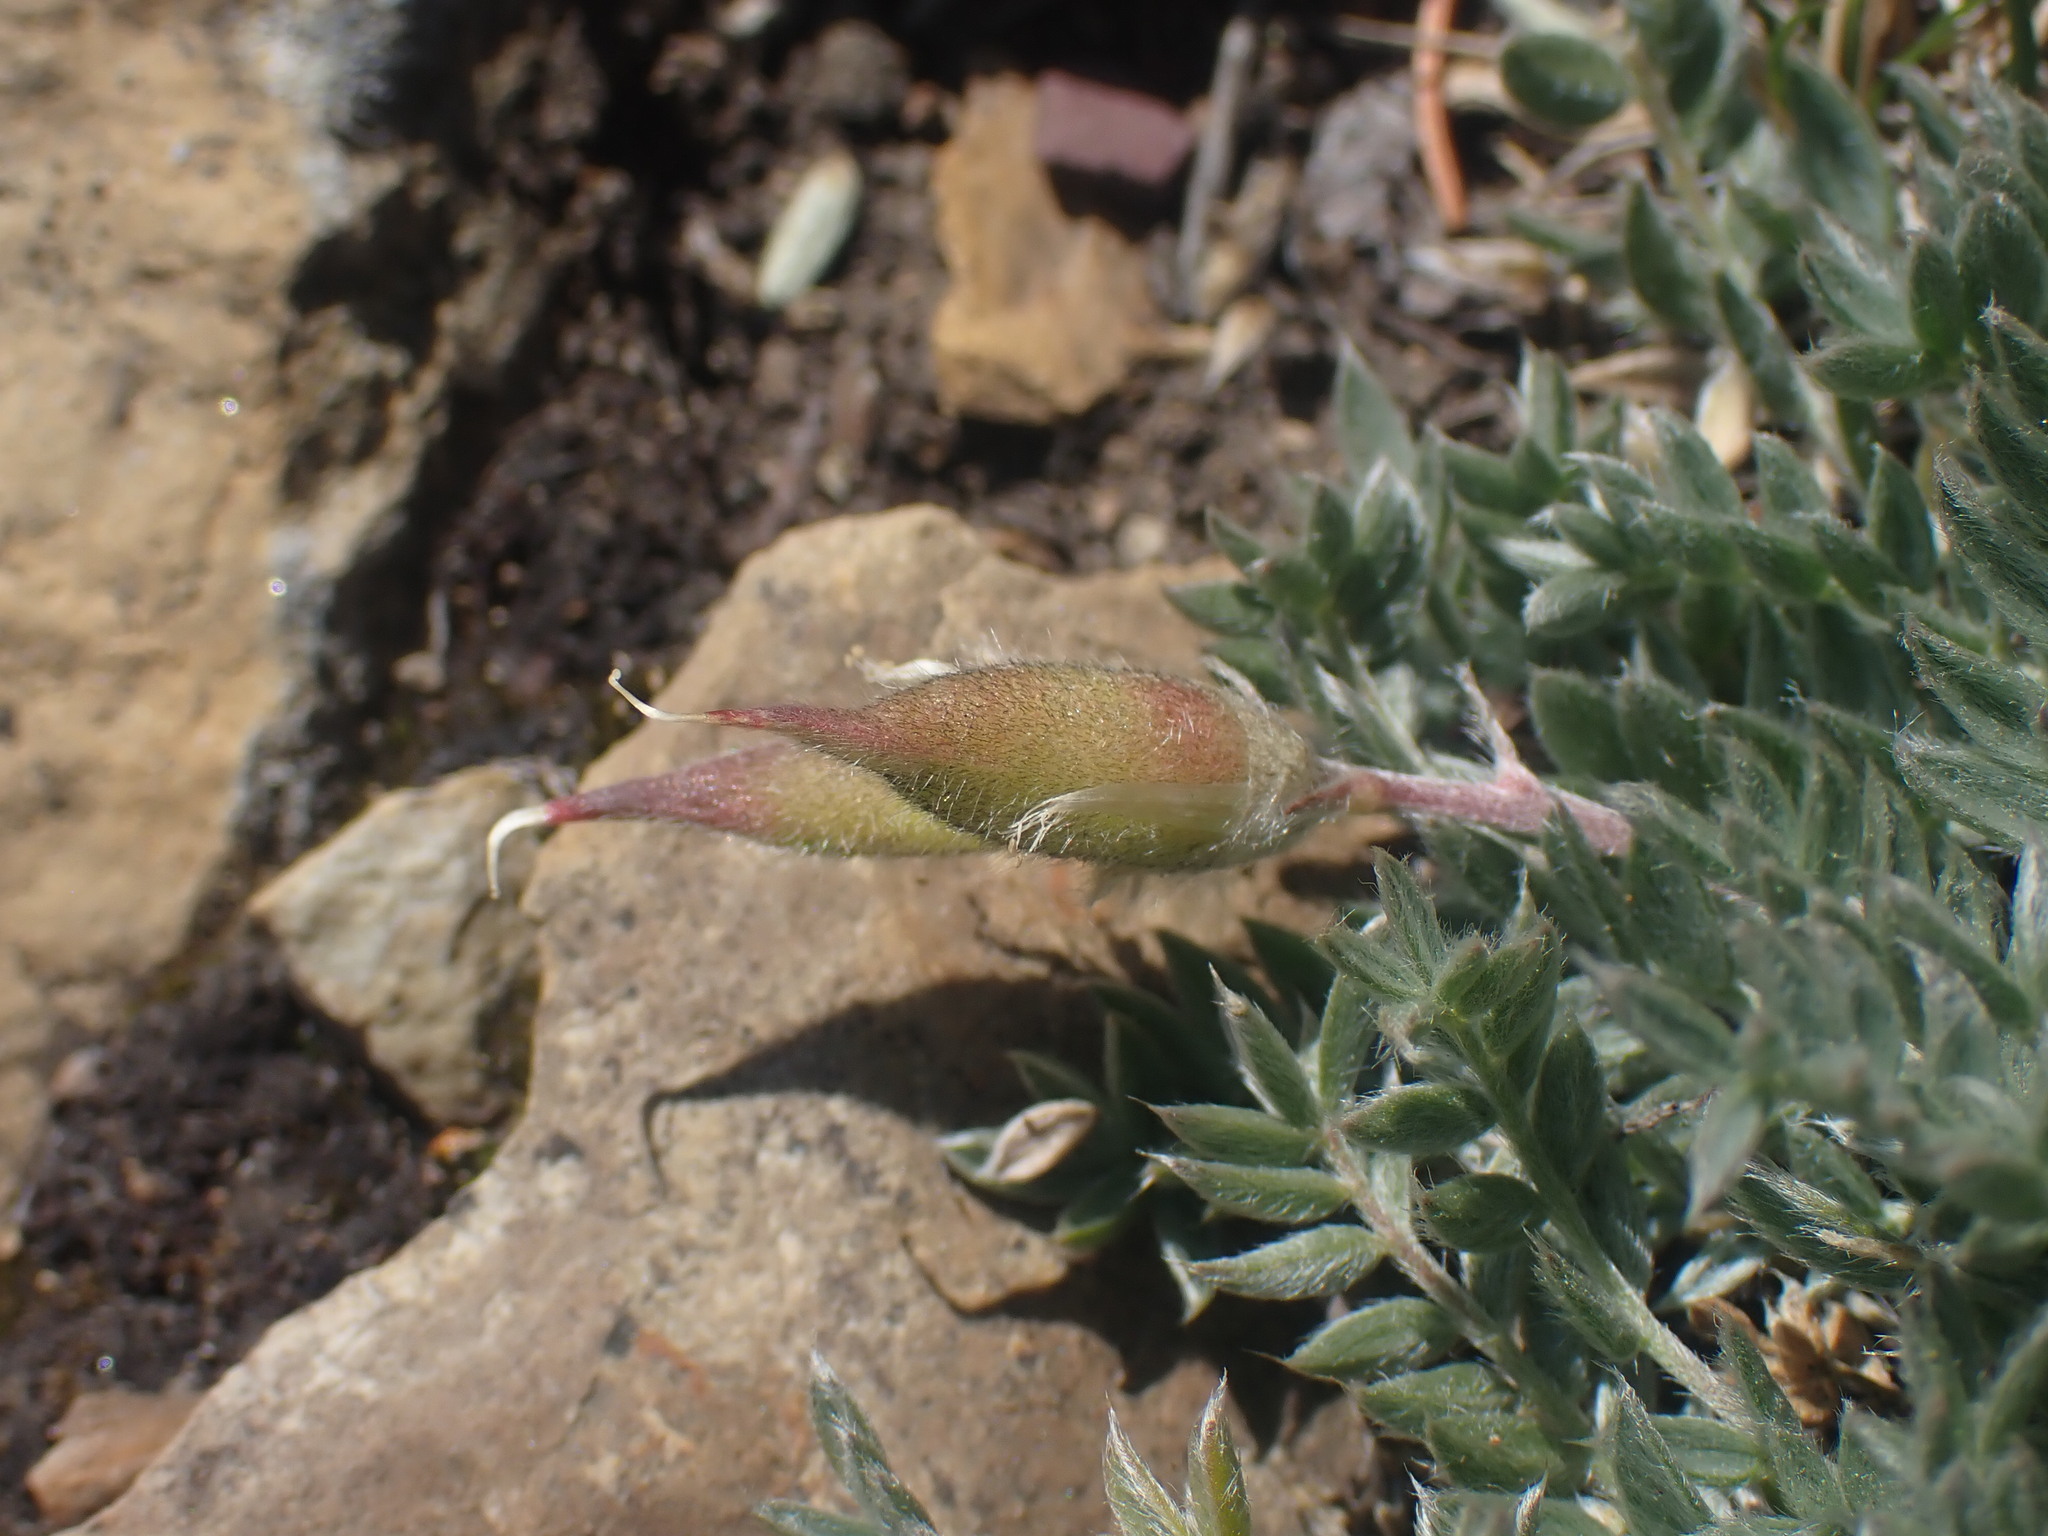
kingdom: Plantae
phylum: Tracheophyta
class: Magnoliopsida
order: Fabales
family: Fabaceae
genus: Oxytropis
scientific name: Oxytropis podocarpa
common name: Gray's oxytrope
